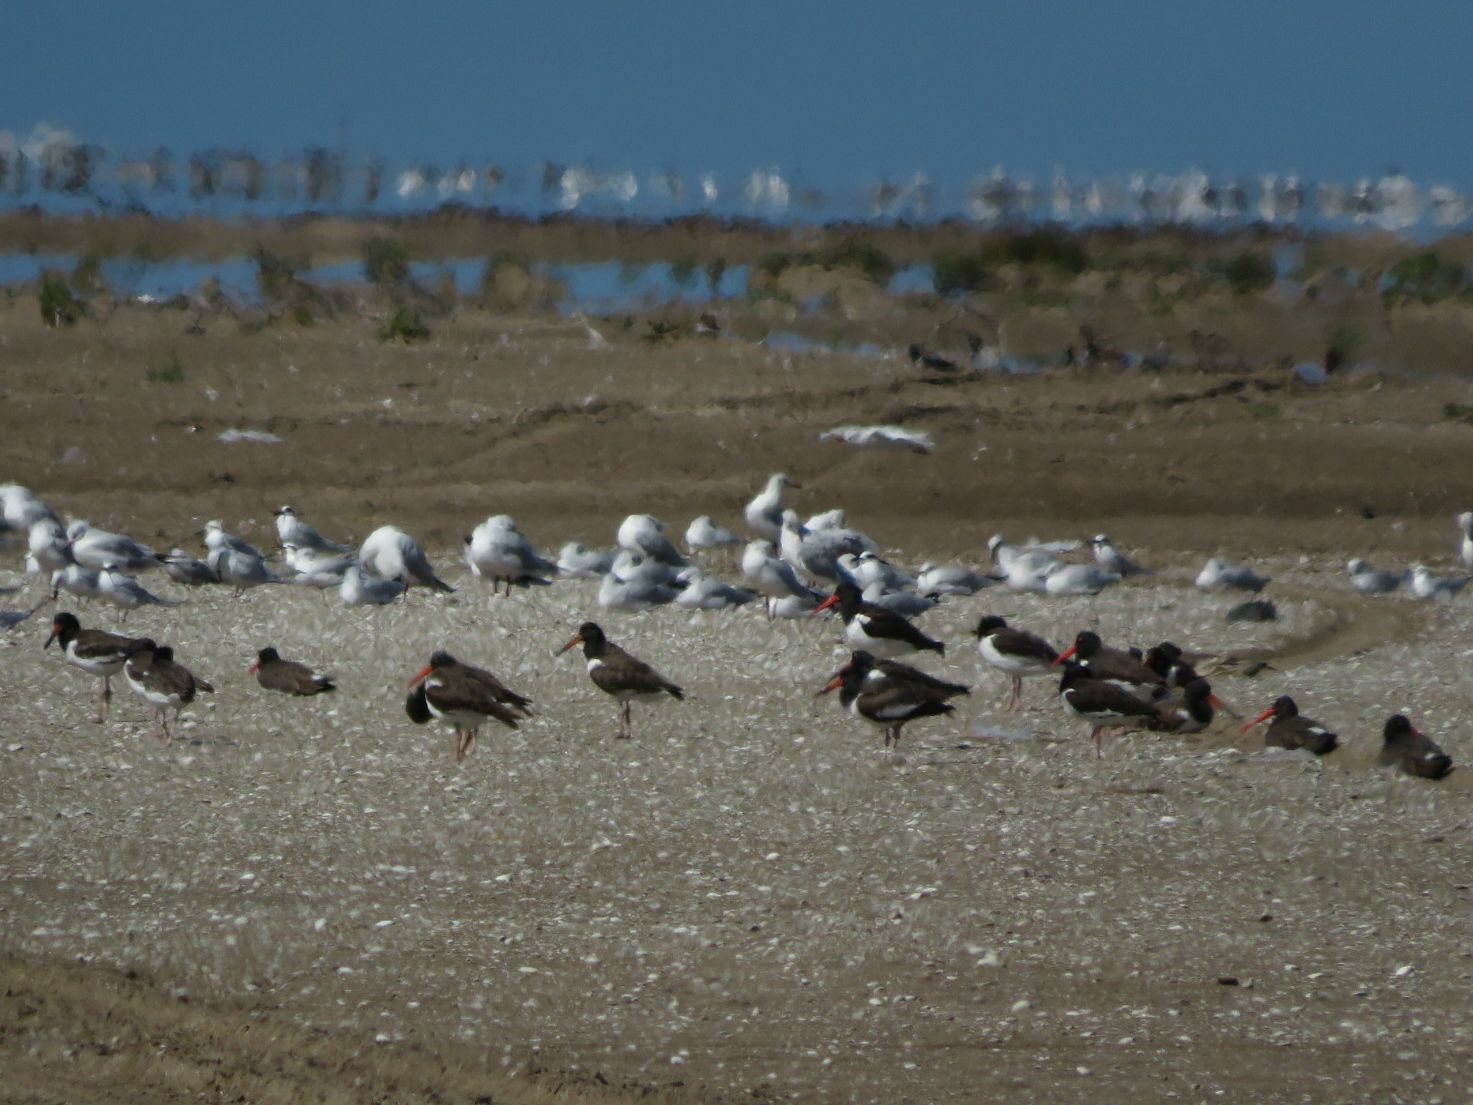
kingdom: Animalia
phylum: Chordata
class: Aves
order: Charadriiformes
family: Haematopodidae
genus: Haematopus
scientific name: Haematopus palliatus
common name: American oystercatcher
